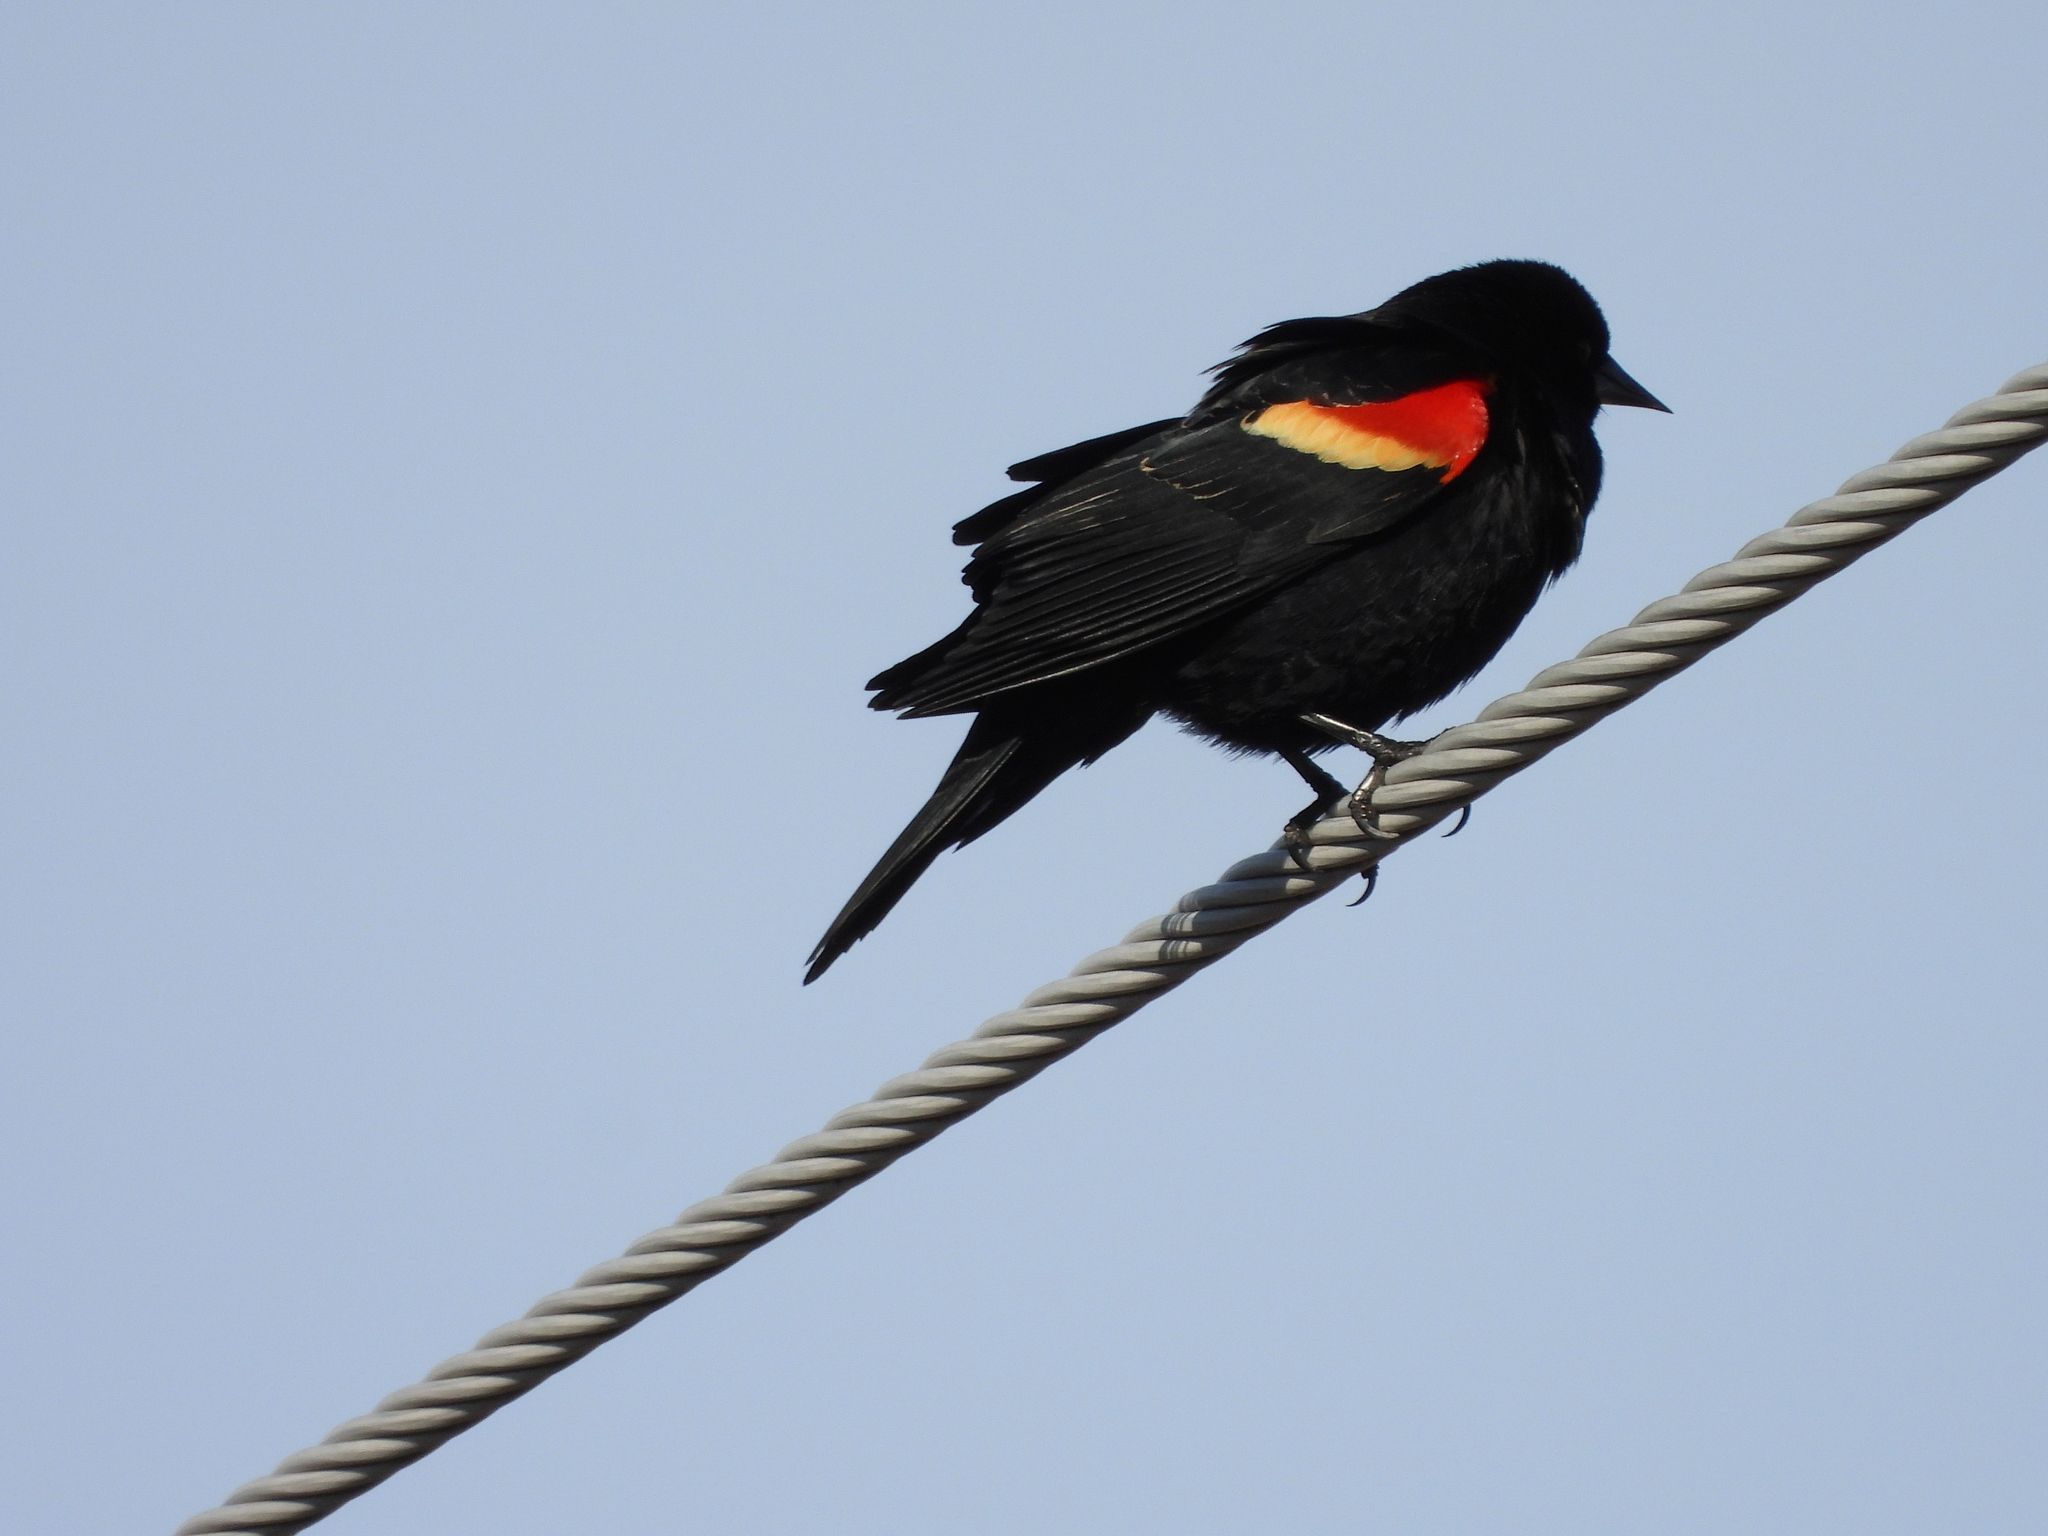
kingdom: Animalia
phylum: Chordata
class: Aves
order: Passeriformes
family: Icteridae
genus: Agelaius
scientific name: Agelaius phoeniceus
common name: Red-winged blackbird
